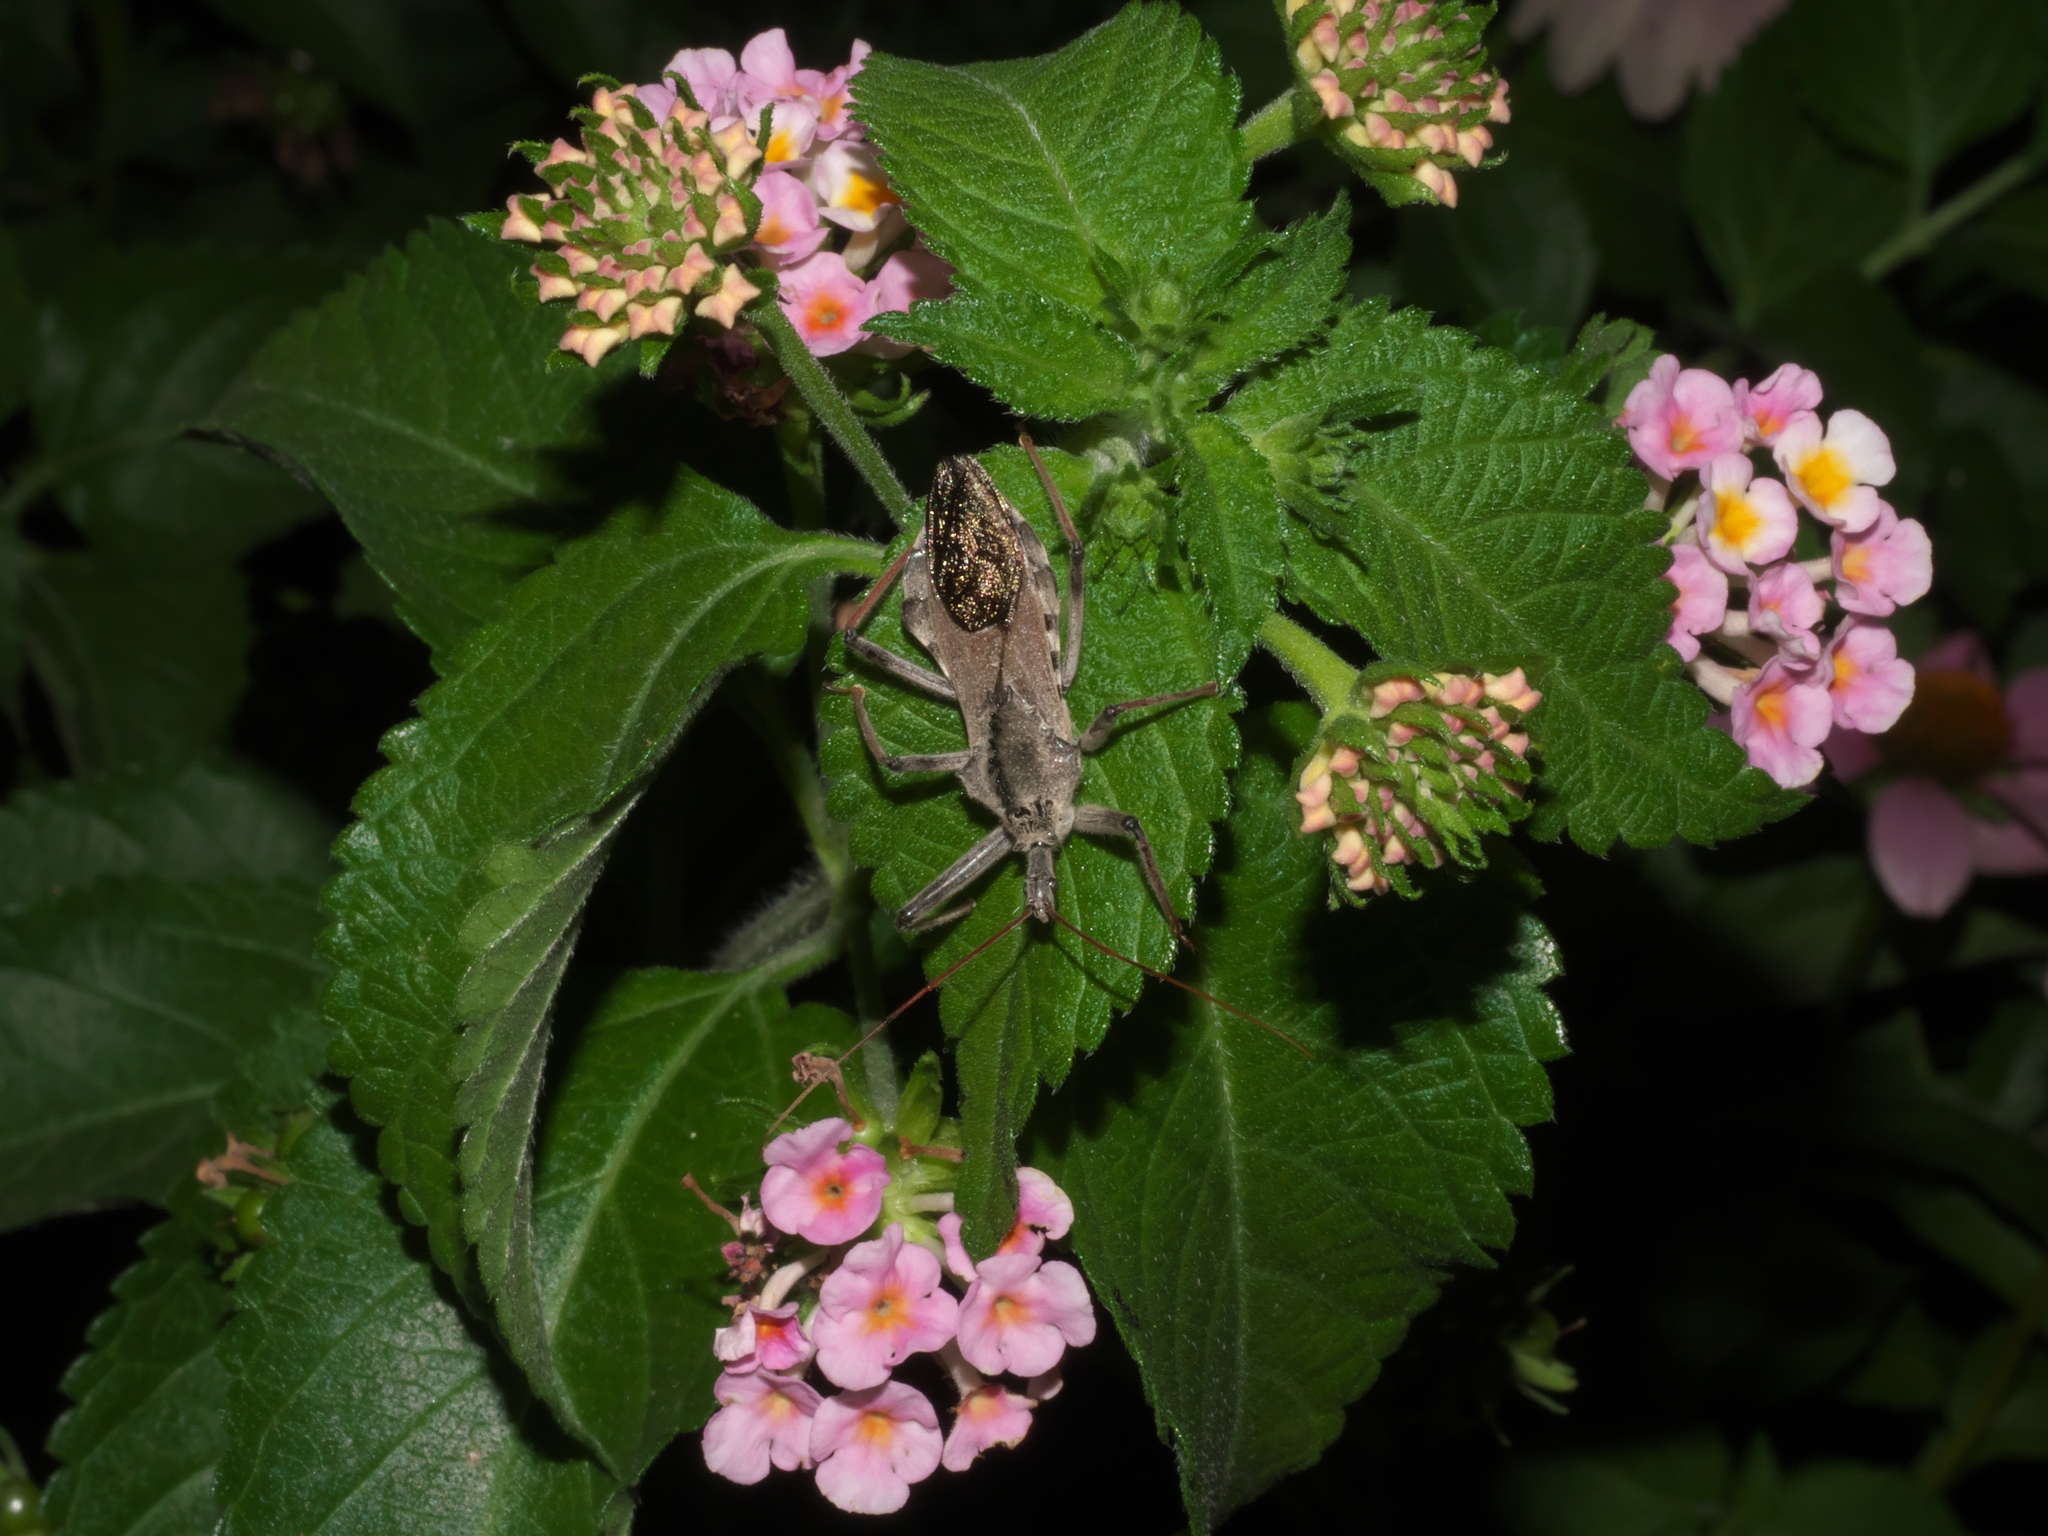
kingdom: Animalia
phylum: Arthropoda
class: Insecta
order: Hemiptera
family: Reduviidae
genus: Arilus
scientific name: Arilus cristatus
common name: North american wheel bug
